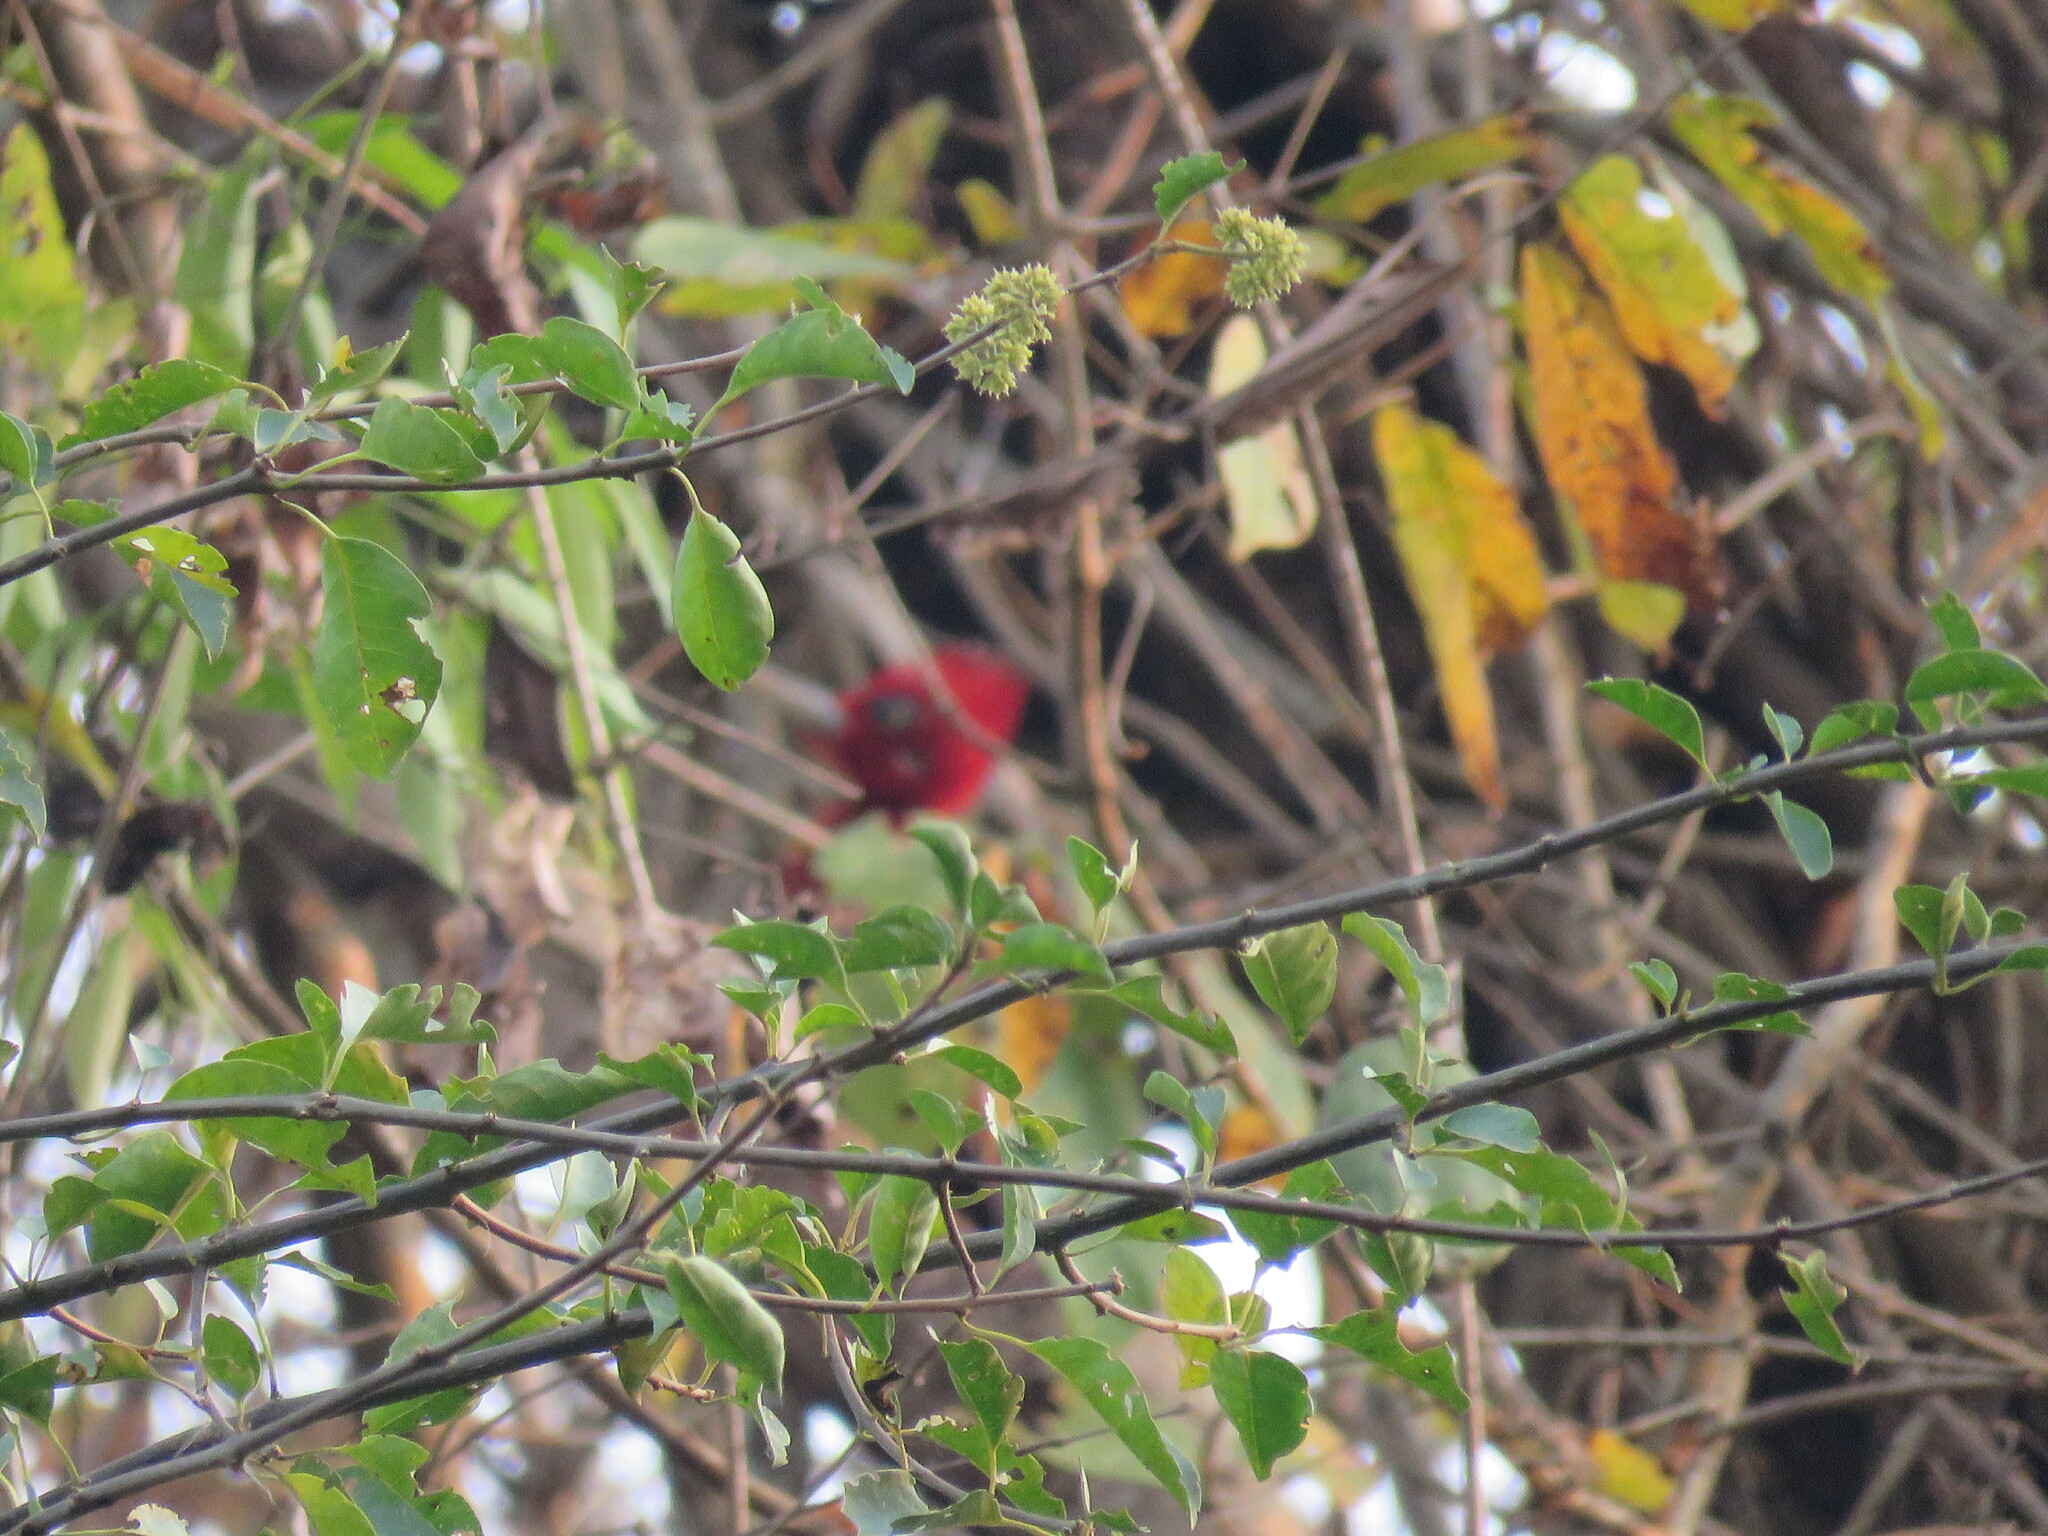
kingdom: Animalia
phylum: Chordata
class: Aves
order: Piciformes
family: Picidae
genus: Campephilus
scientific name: Campephilus rubricollis
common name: Red-necked woodpecker
